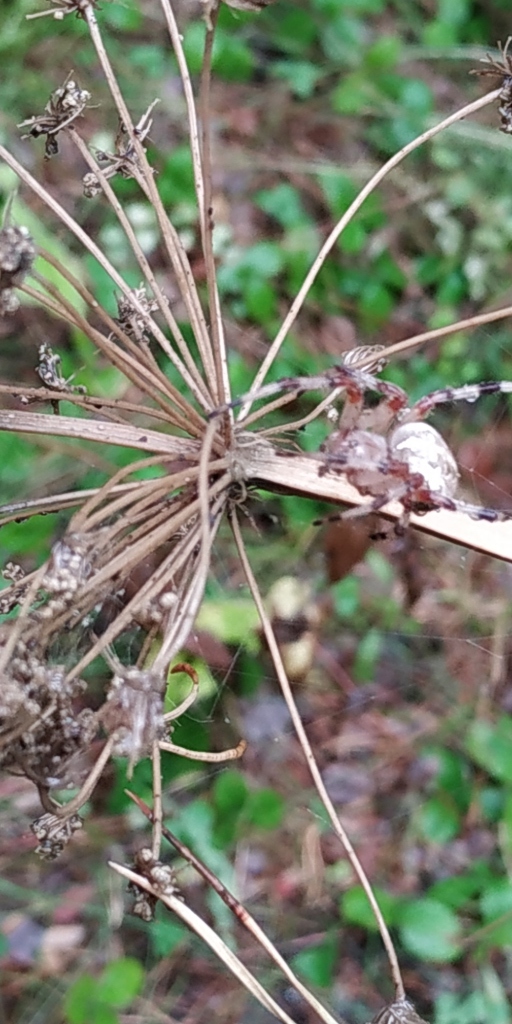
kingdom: Animalia
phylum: Arthropoda
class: Arachnida
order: Araneae
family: Araneidae
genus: Araneus
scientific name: Araneus marmoreus
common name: Marbled orbweaver
